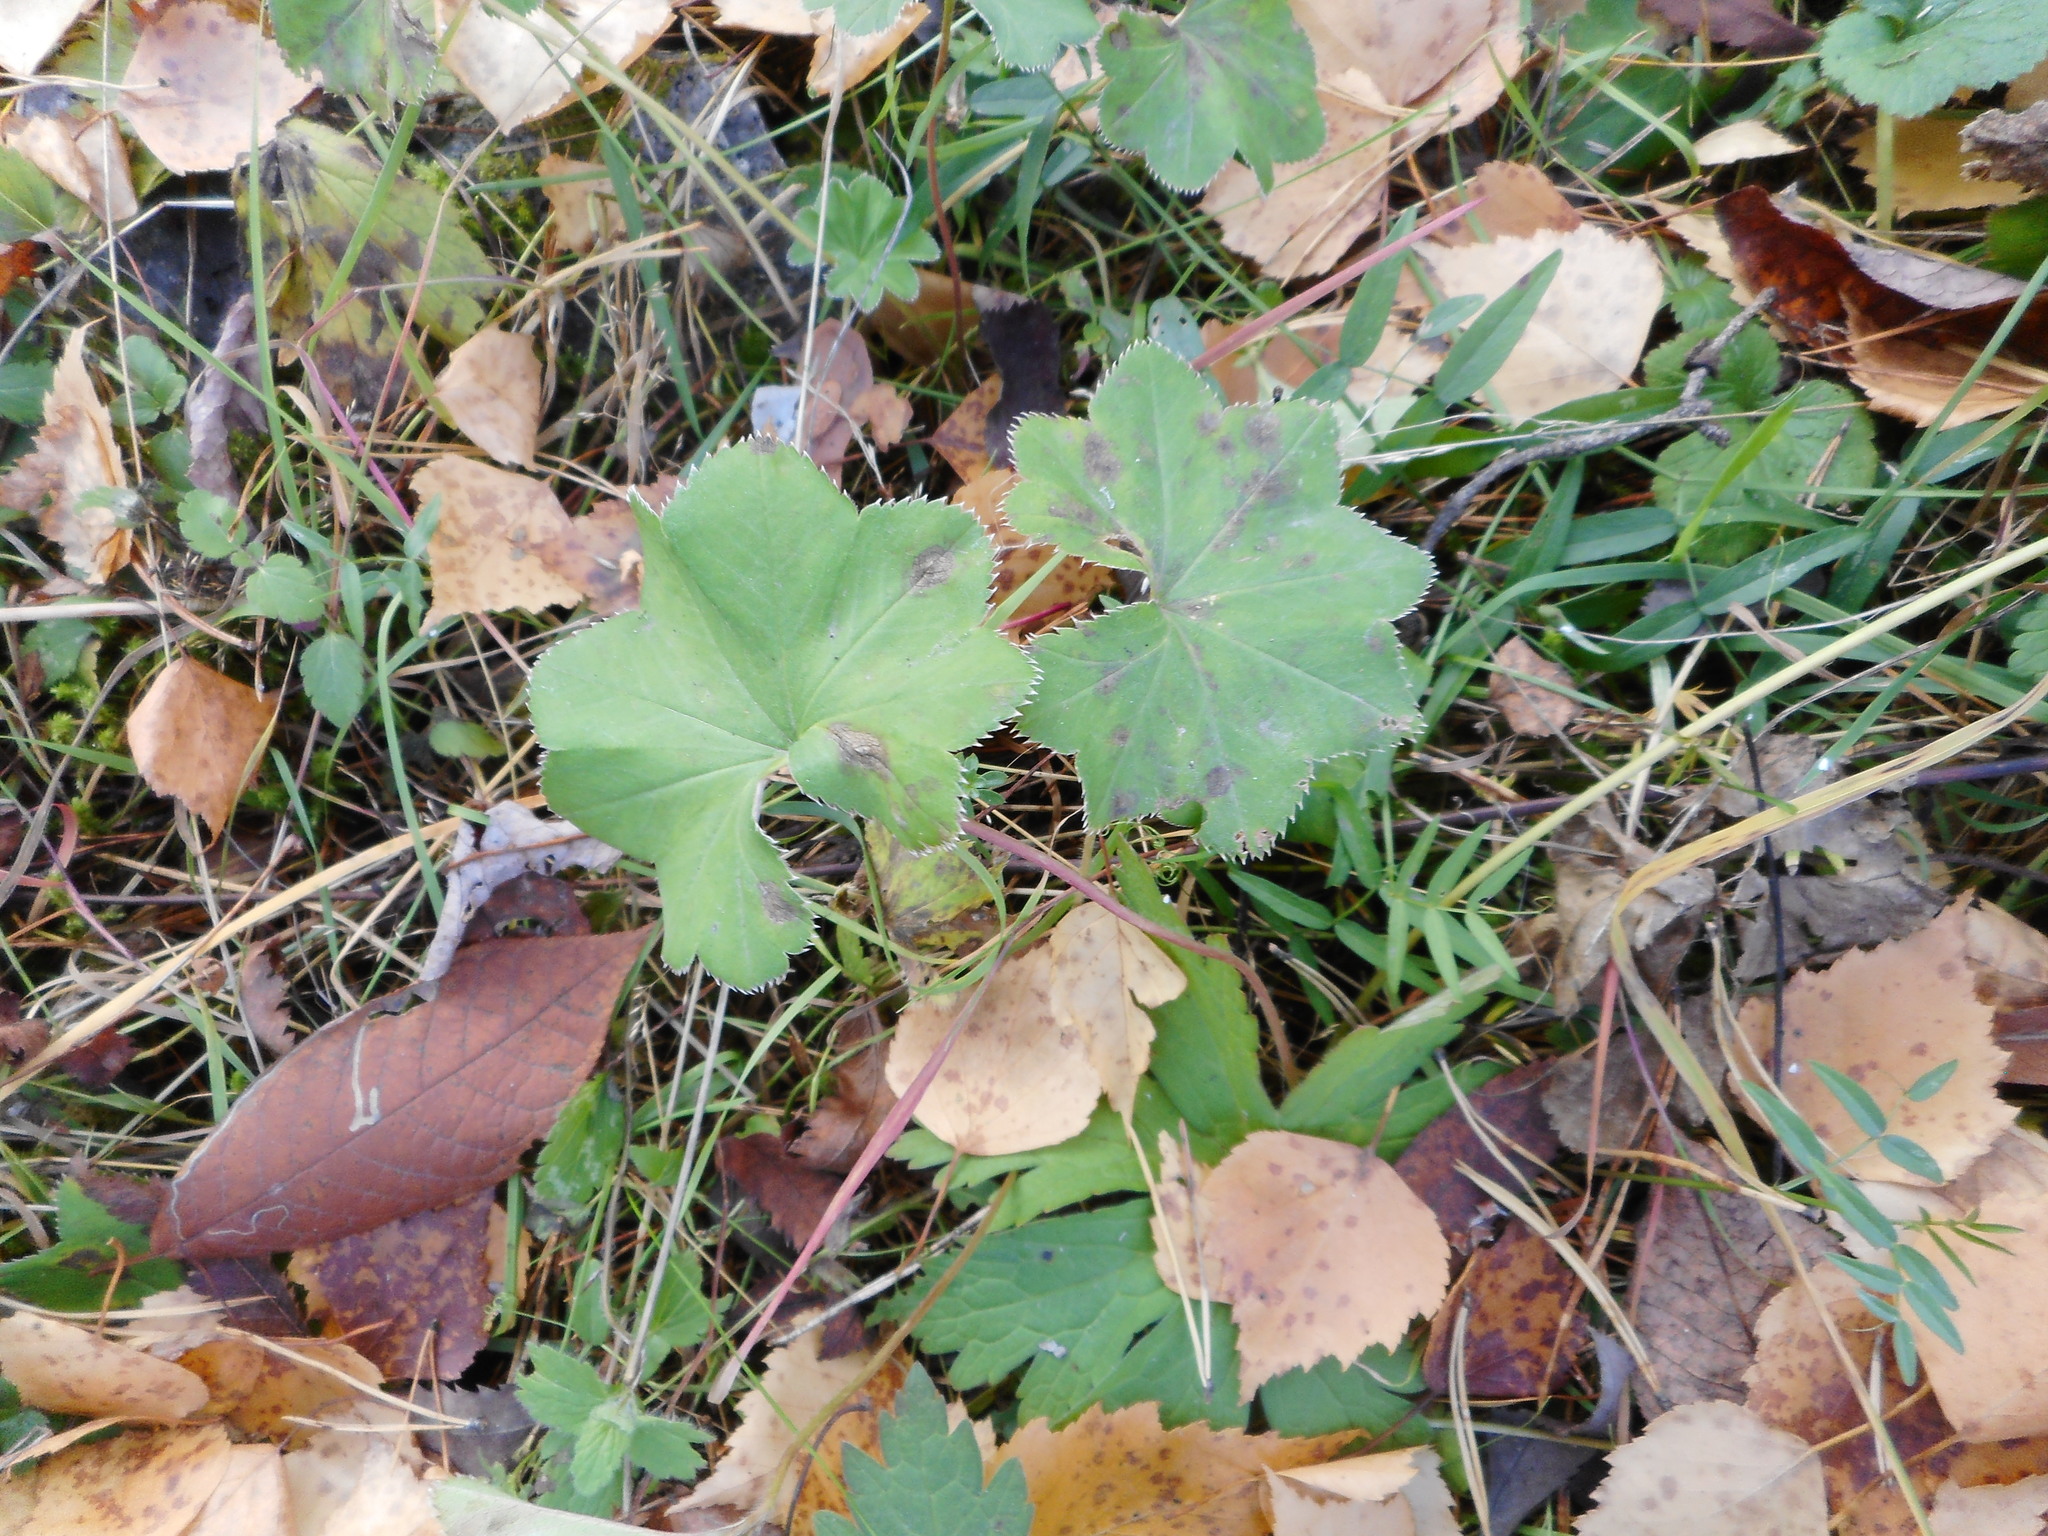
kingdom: Plantae
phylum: Tracheophyta
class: Magnoliopsida
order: Rosales
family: Rosaceae
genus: Alchemilla
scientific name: Alchemilla
